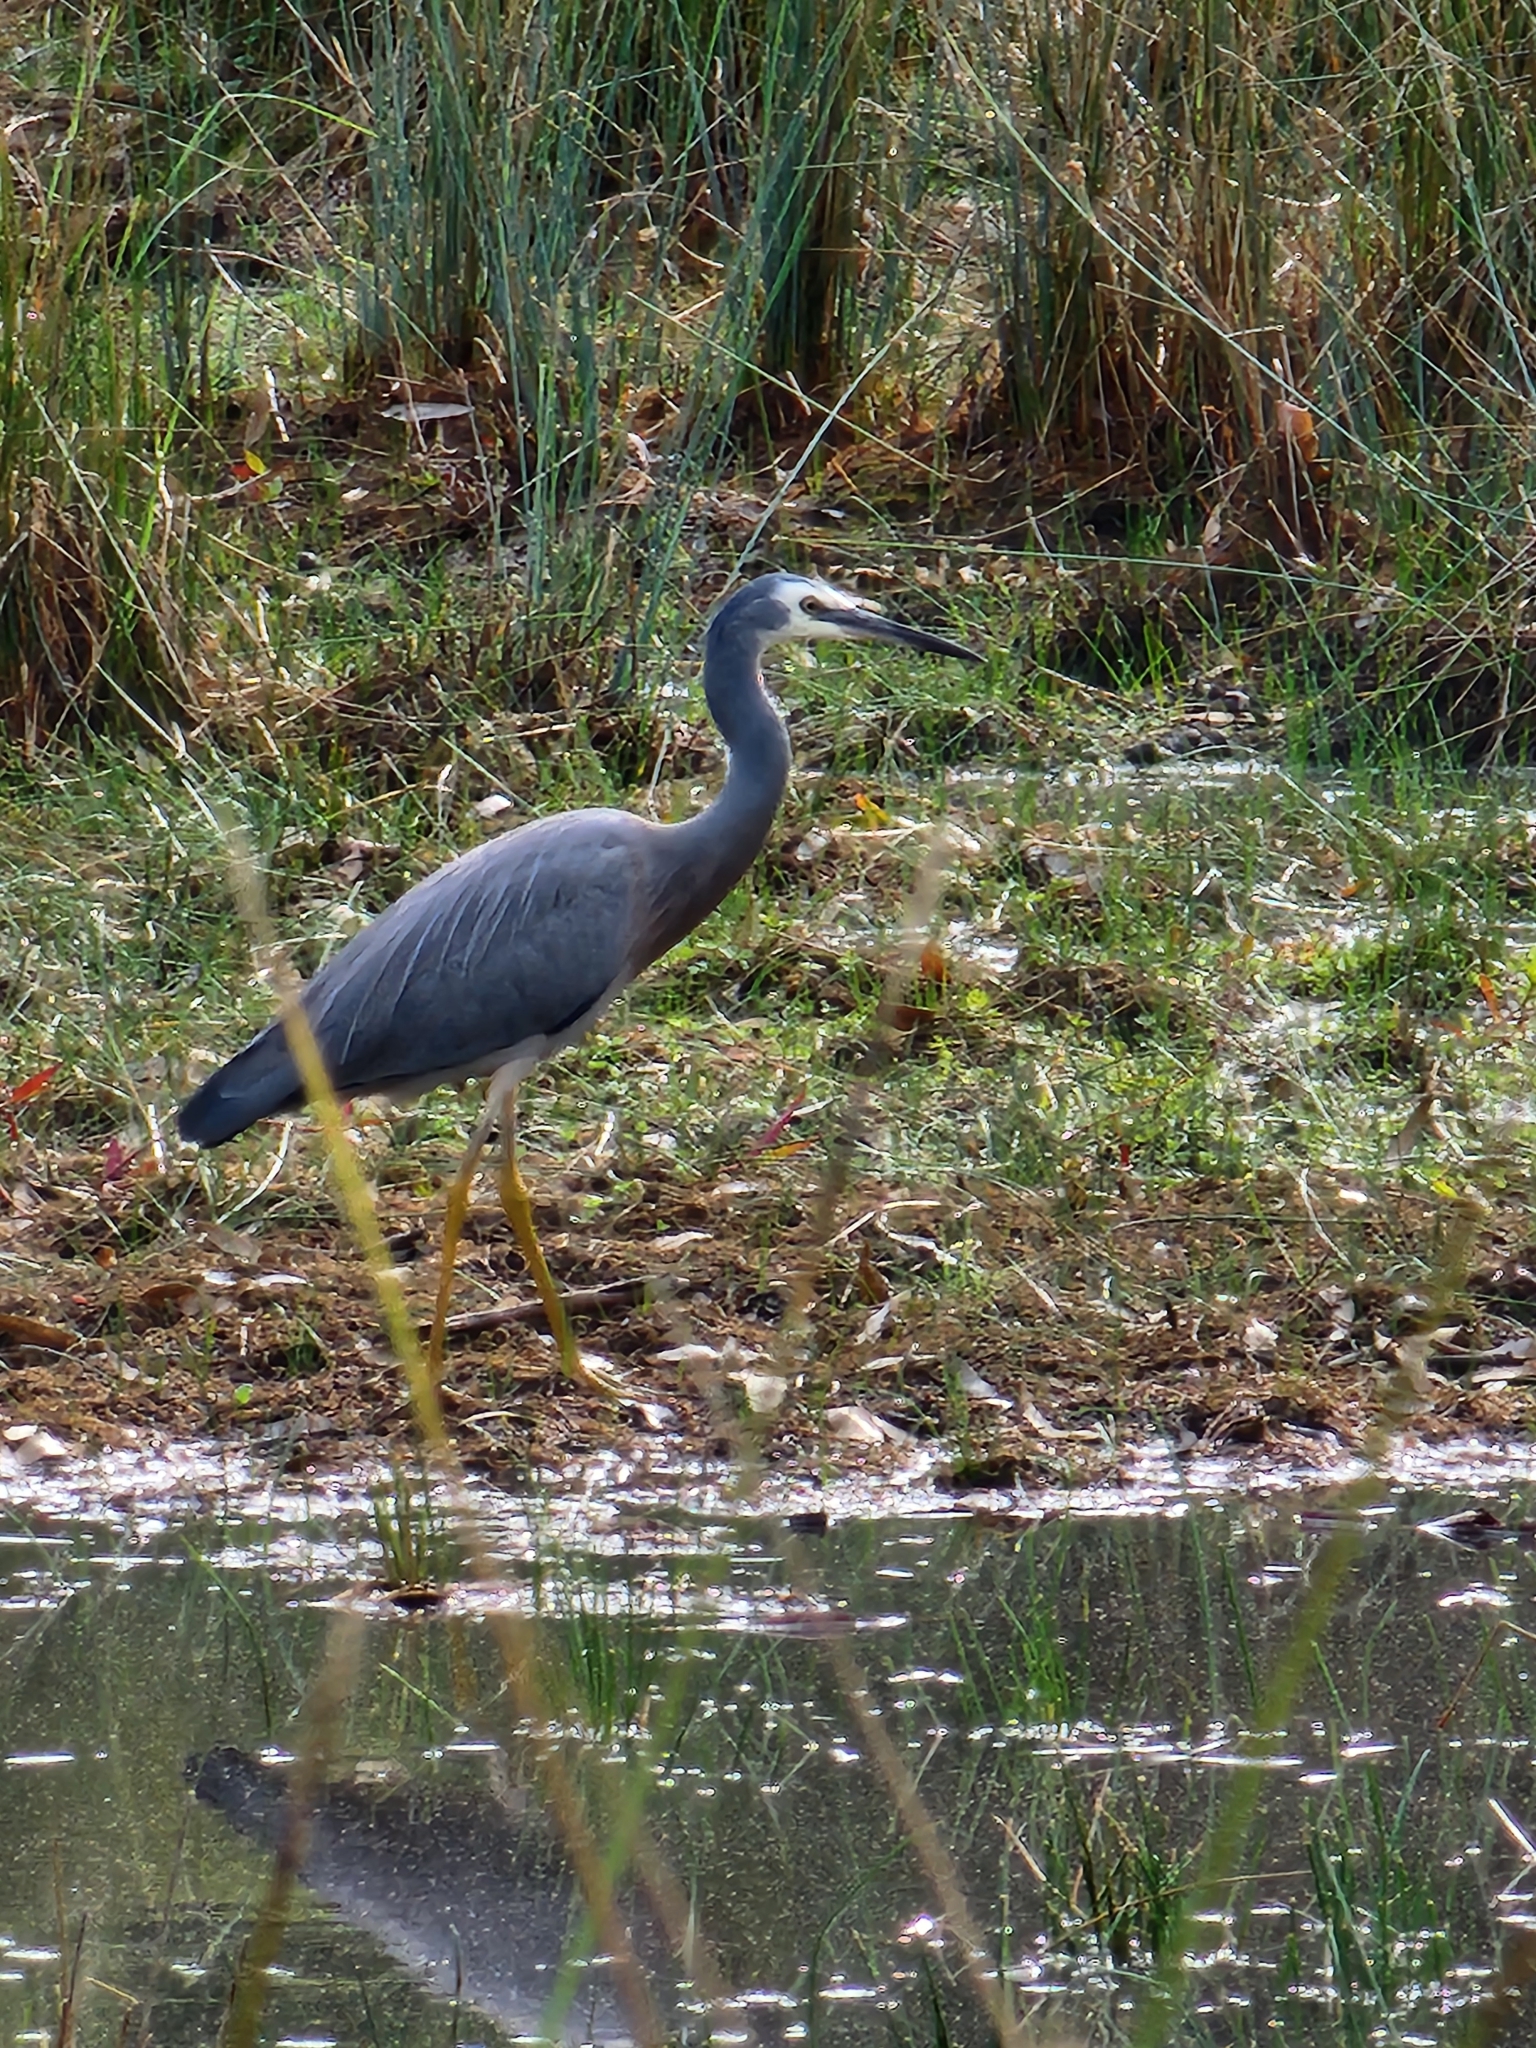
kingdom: Animalia
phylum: Chordata
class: Aves
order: Pelecaniformes
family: Ardeidae
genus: Egretta
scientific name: Egretta novaehollandiae
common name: White-faced heron
